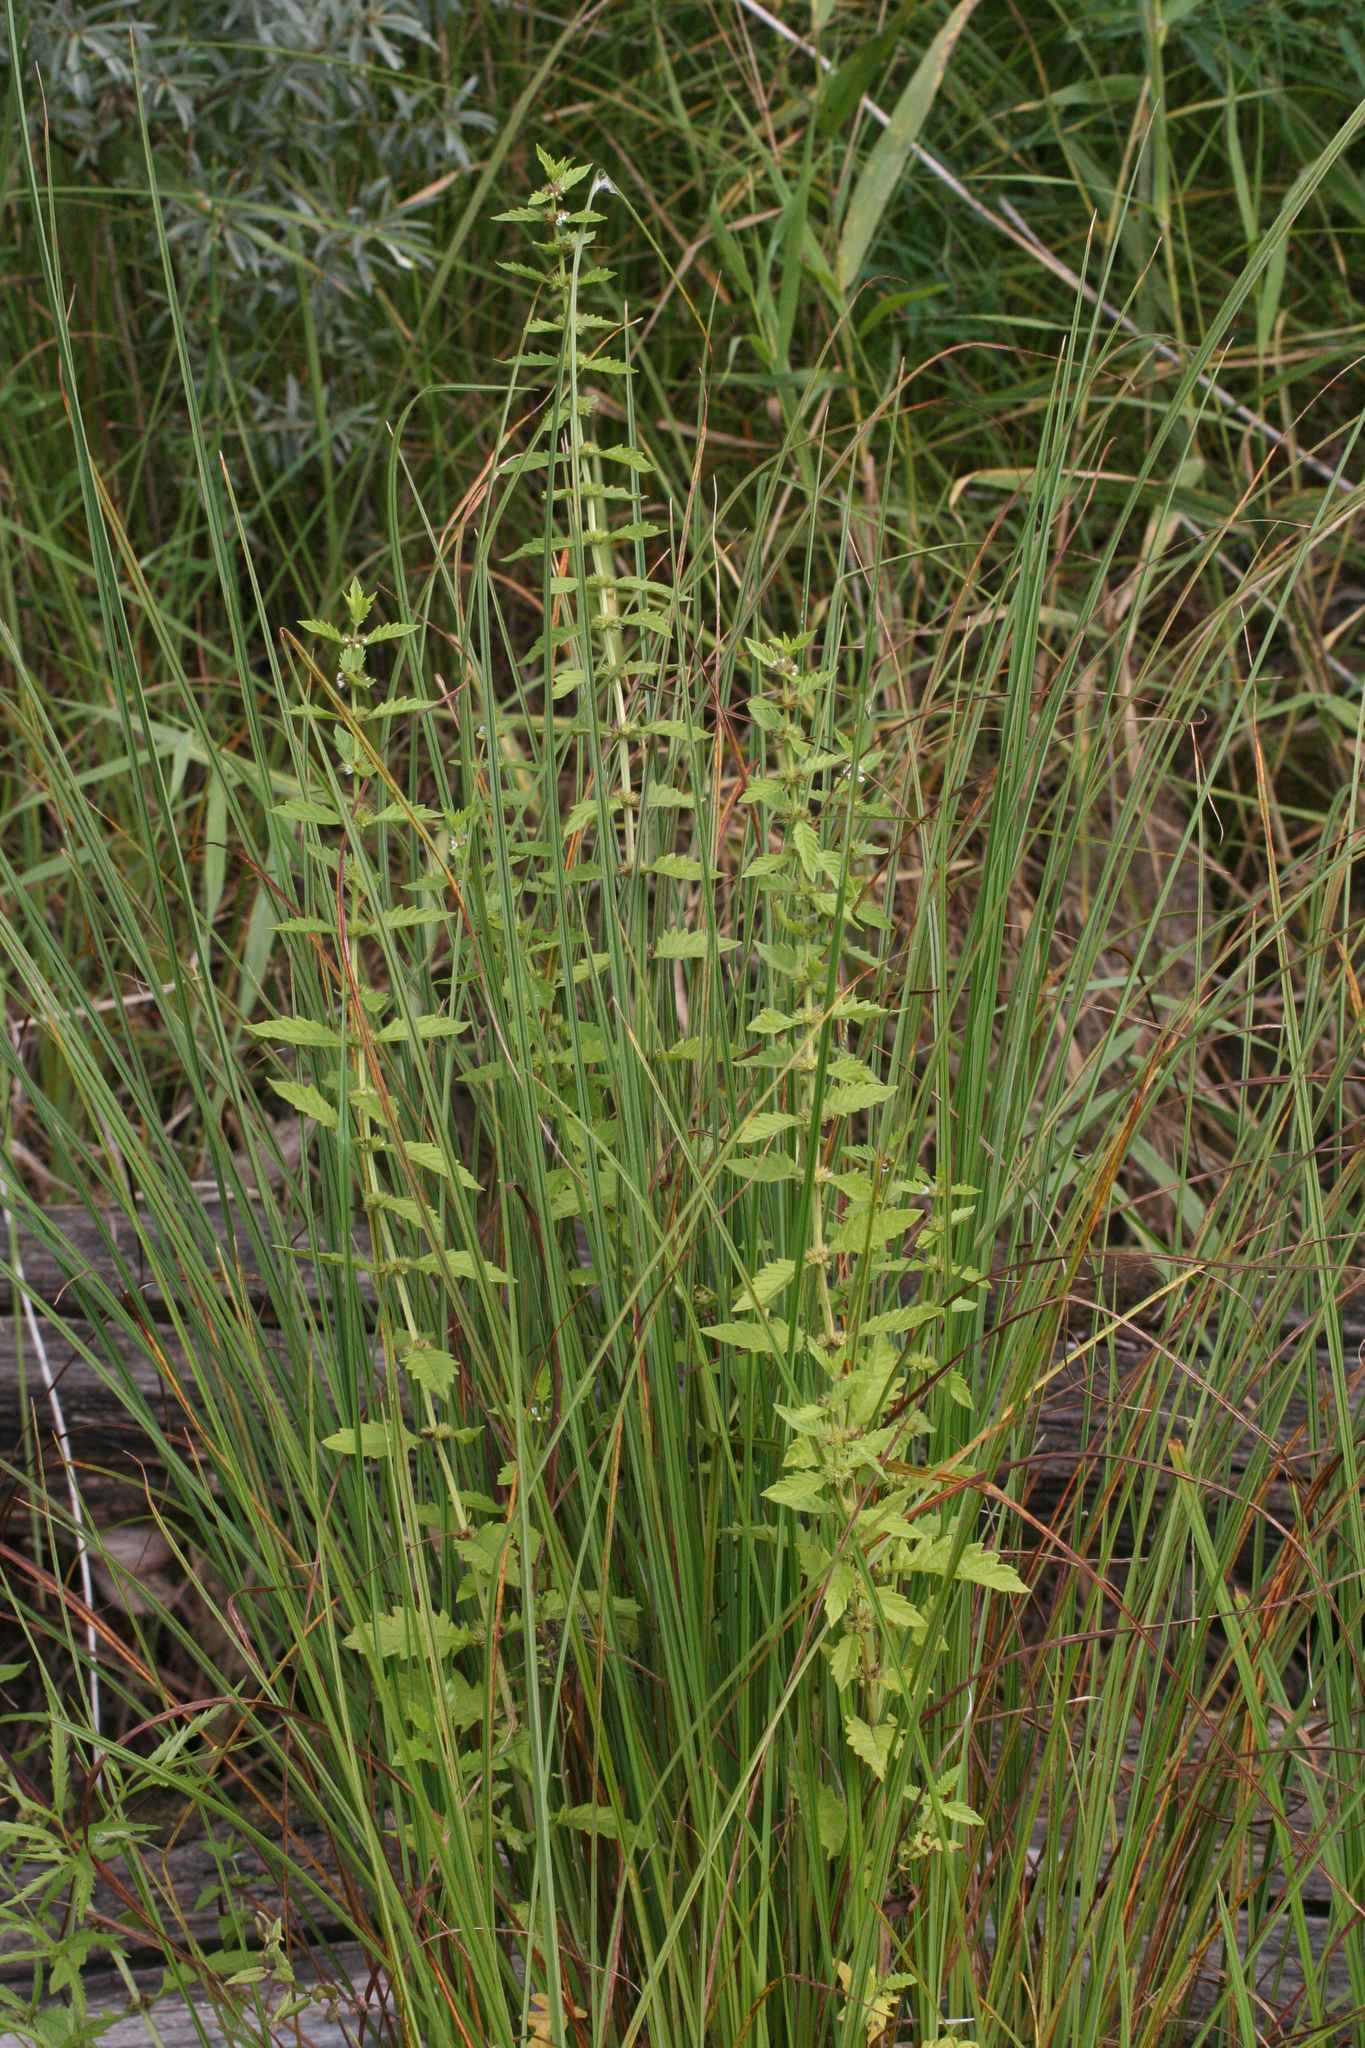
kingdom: Plantae
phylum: Tracheophyta
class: Magnoliopsida
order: Lamiales
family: Lamiaceae
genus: Lycopus
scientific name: Lycopus europaeus
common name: European bugleweed
